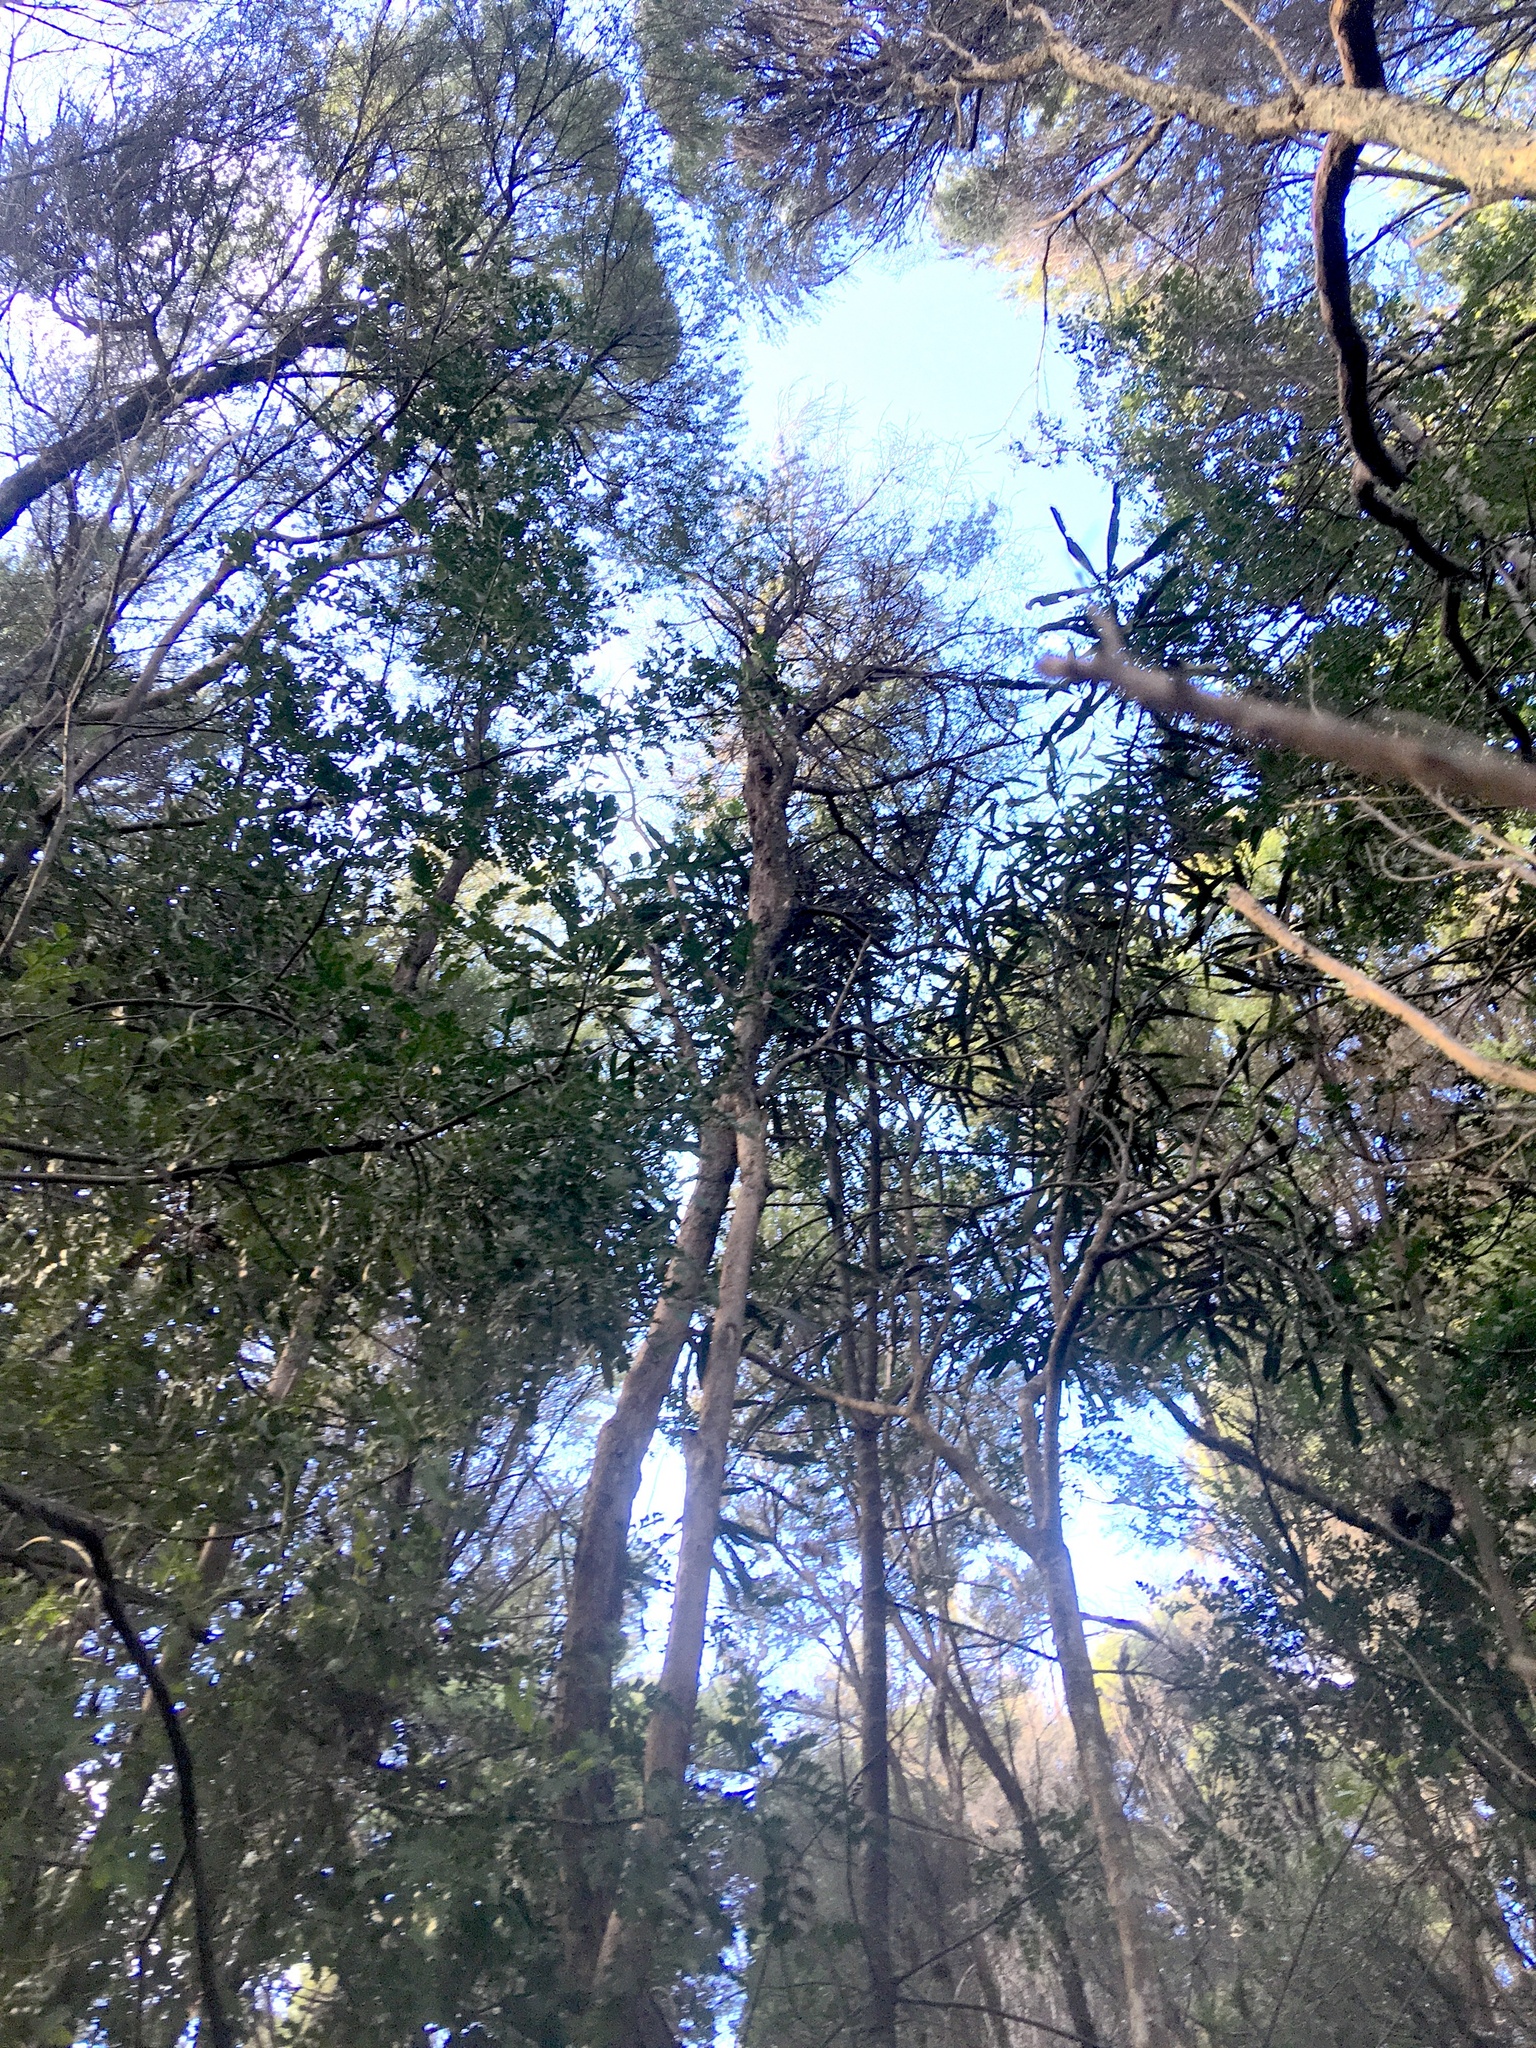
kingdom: Plantae
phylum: Tracheophyta
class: Magnoliopsida
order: Apiales
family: Araliaceae
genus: Pseudopanax
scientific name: Pseudopanax crassifolius
